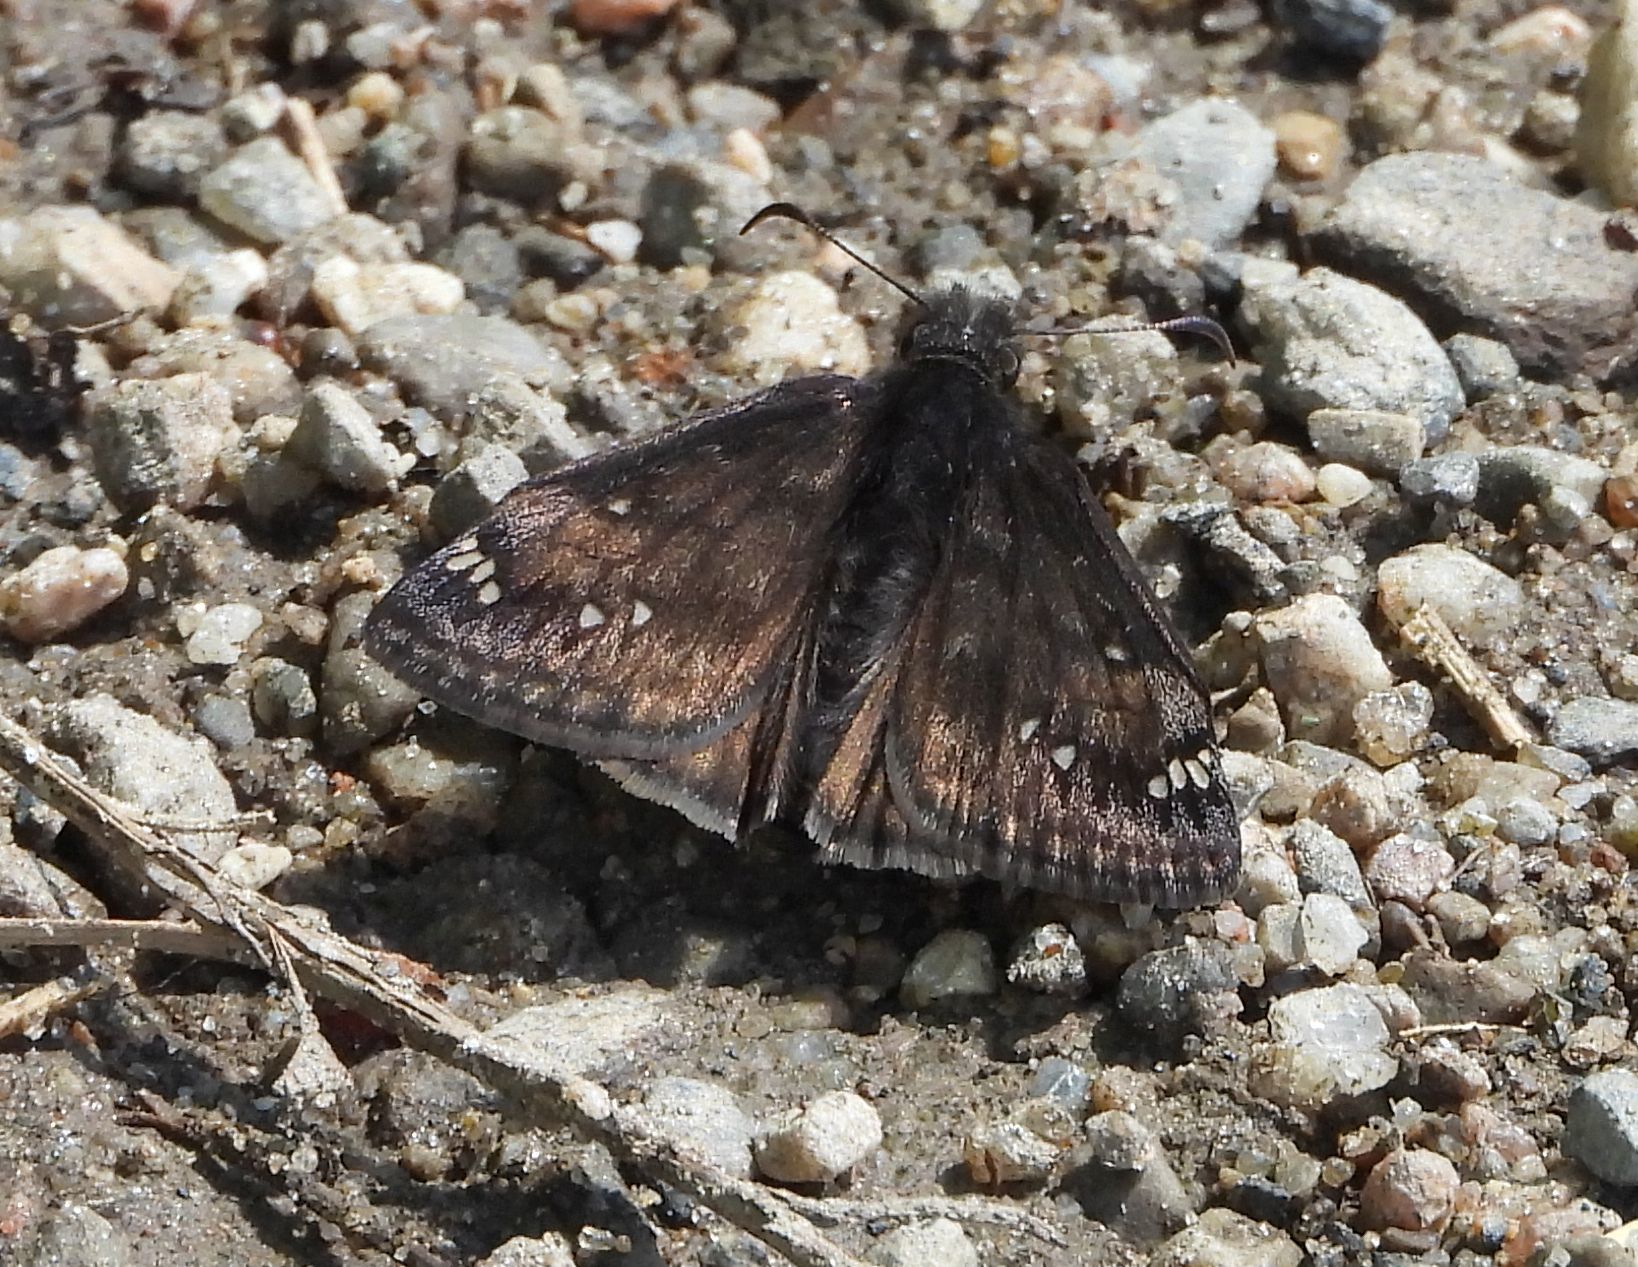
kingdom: Animalia
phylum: Arthropoda
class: Insecta
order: Lepidoptera
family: Hesperiidae
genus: Erynnis
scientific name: Erynnis juvenalis
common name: Juvenal's duskywing
